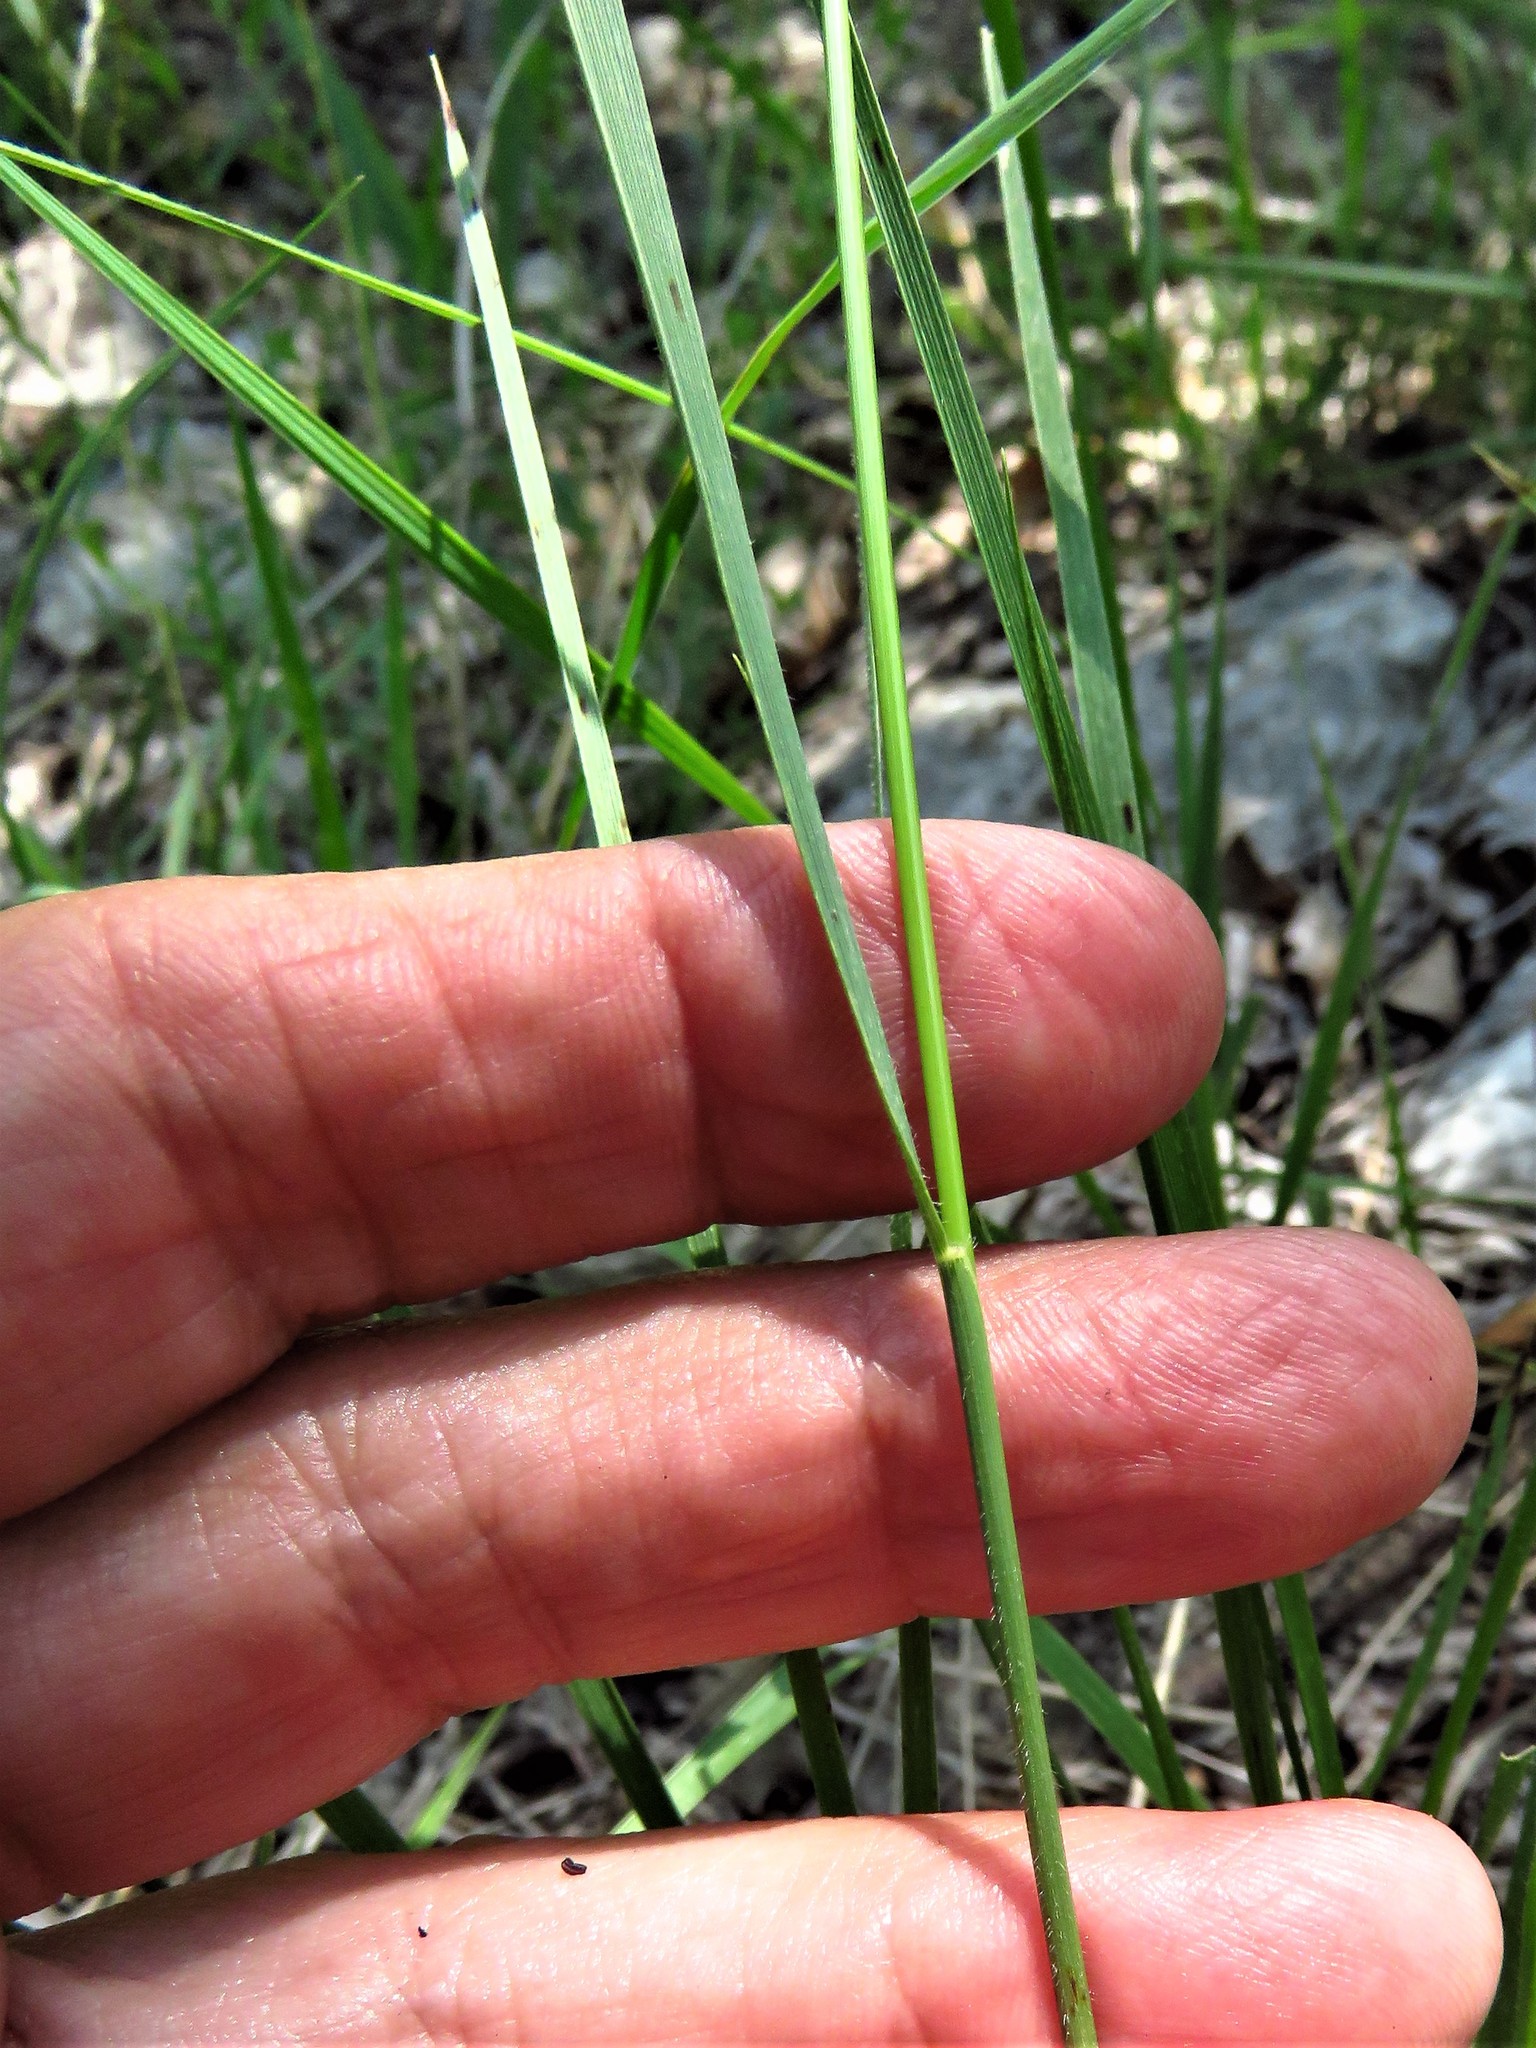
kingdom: Plantae
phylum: Tracheophyta
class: Liliopsida
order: Poales
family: Poaceae
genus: Nassella
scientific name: Nassella leucotricha
